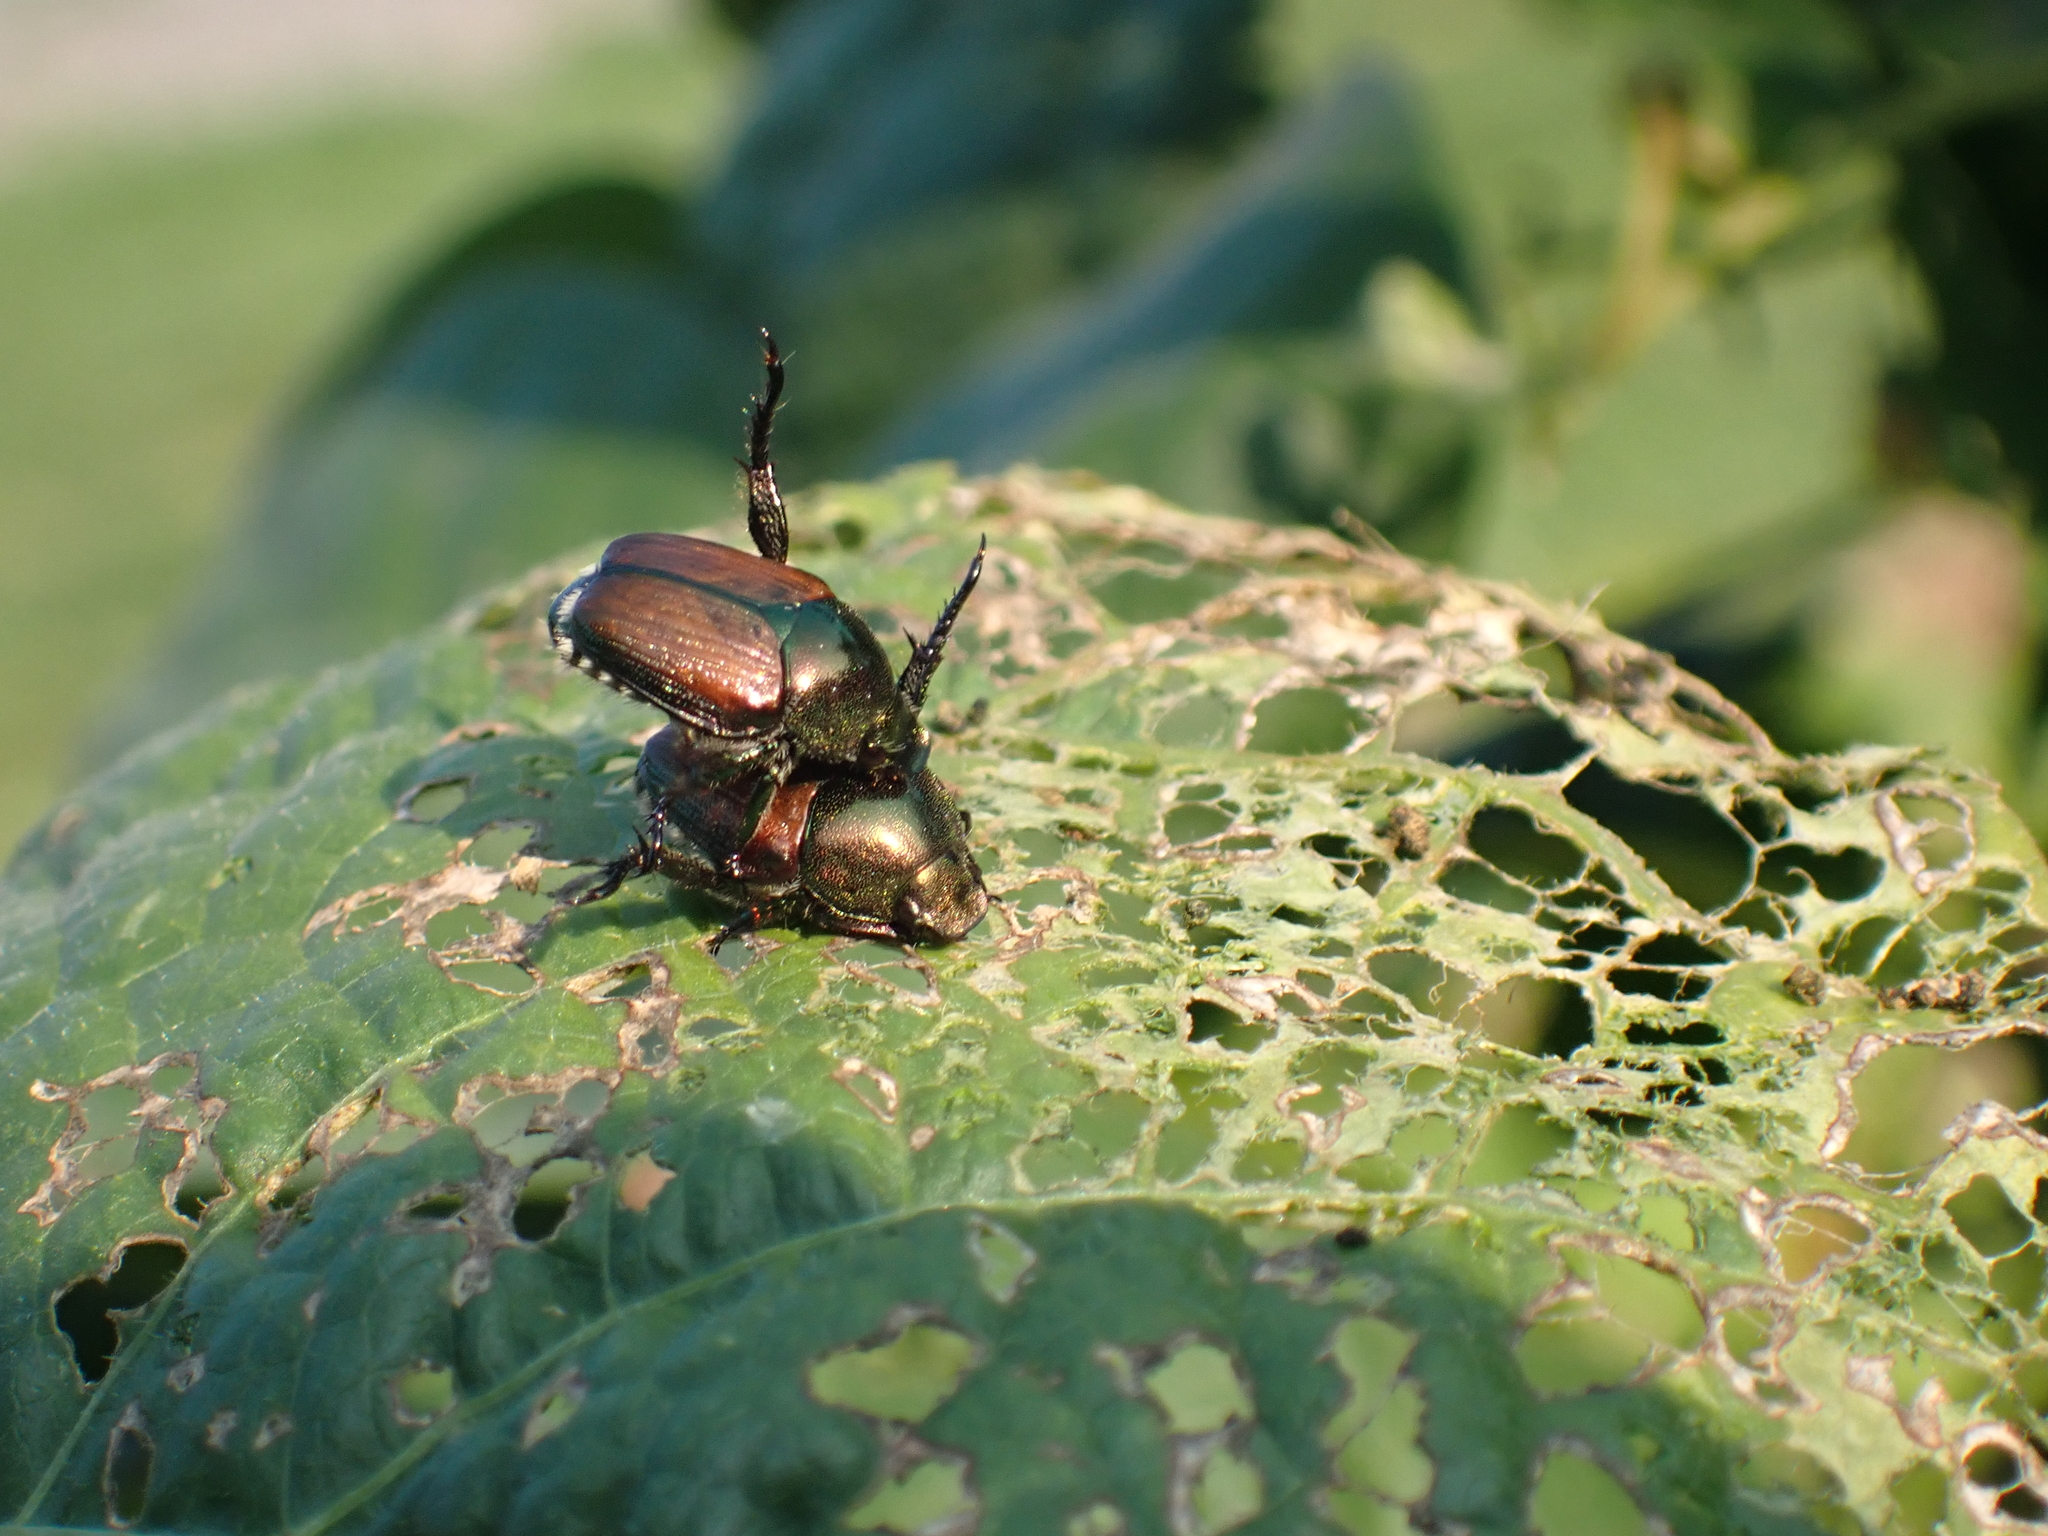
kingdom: Animalia
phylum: Arthropoda
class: Insecta
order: Coleoptera
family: Scarabaeidae
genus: Popillia
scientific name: Popillia japonica
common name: Japanese beetle
